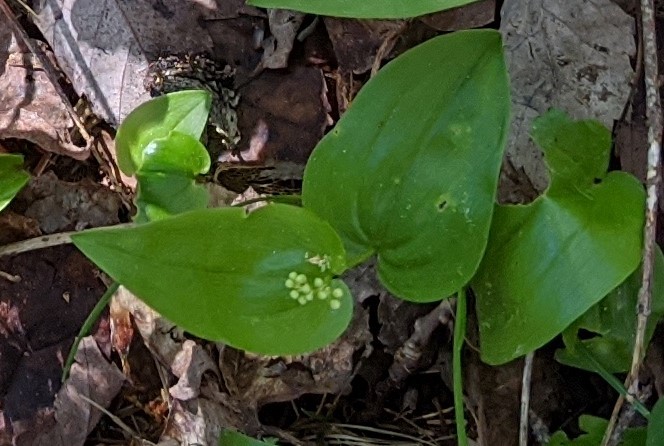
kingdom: Plantae
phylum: Tracheophyta
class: Liliopsida
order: Asparagales
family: Asparagaceae
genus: Maianthemum
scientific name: Maianthemum canadense
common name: False lily-of-the-valley
